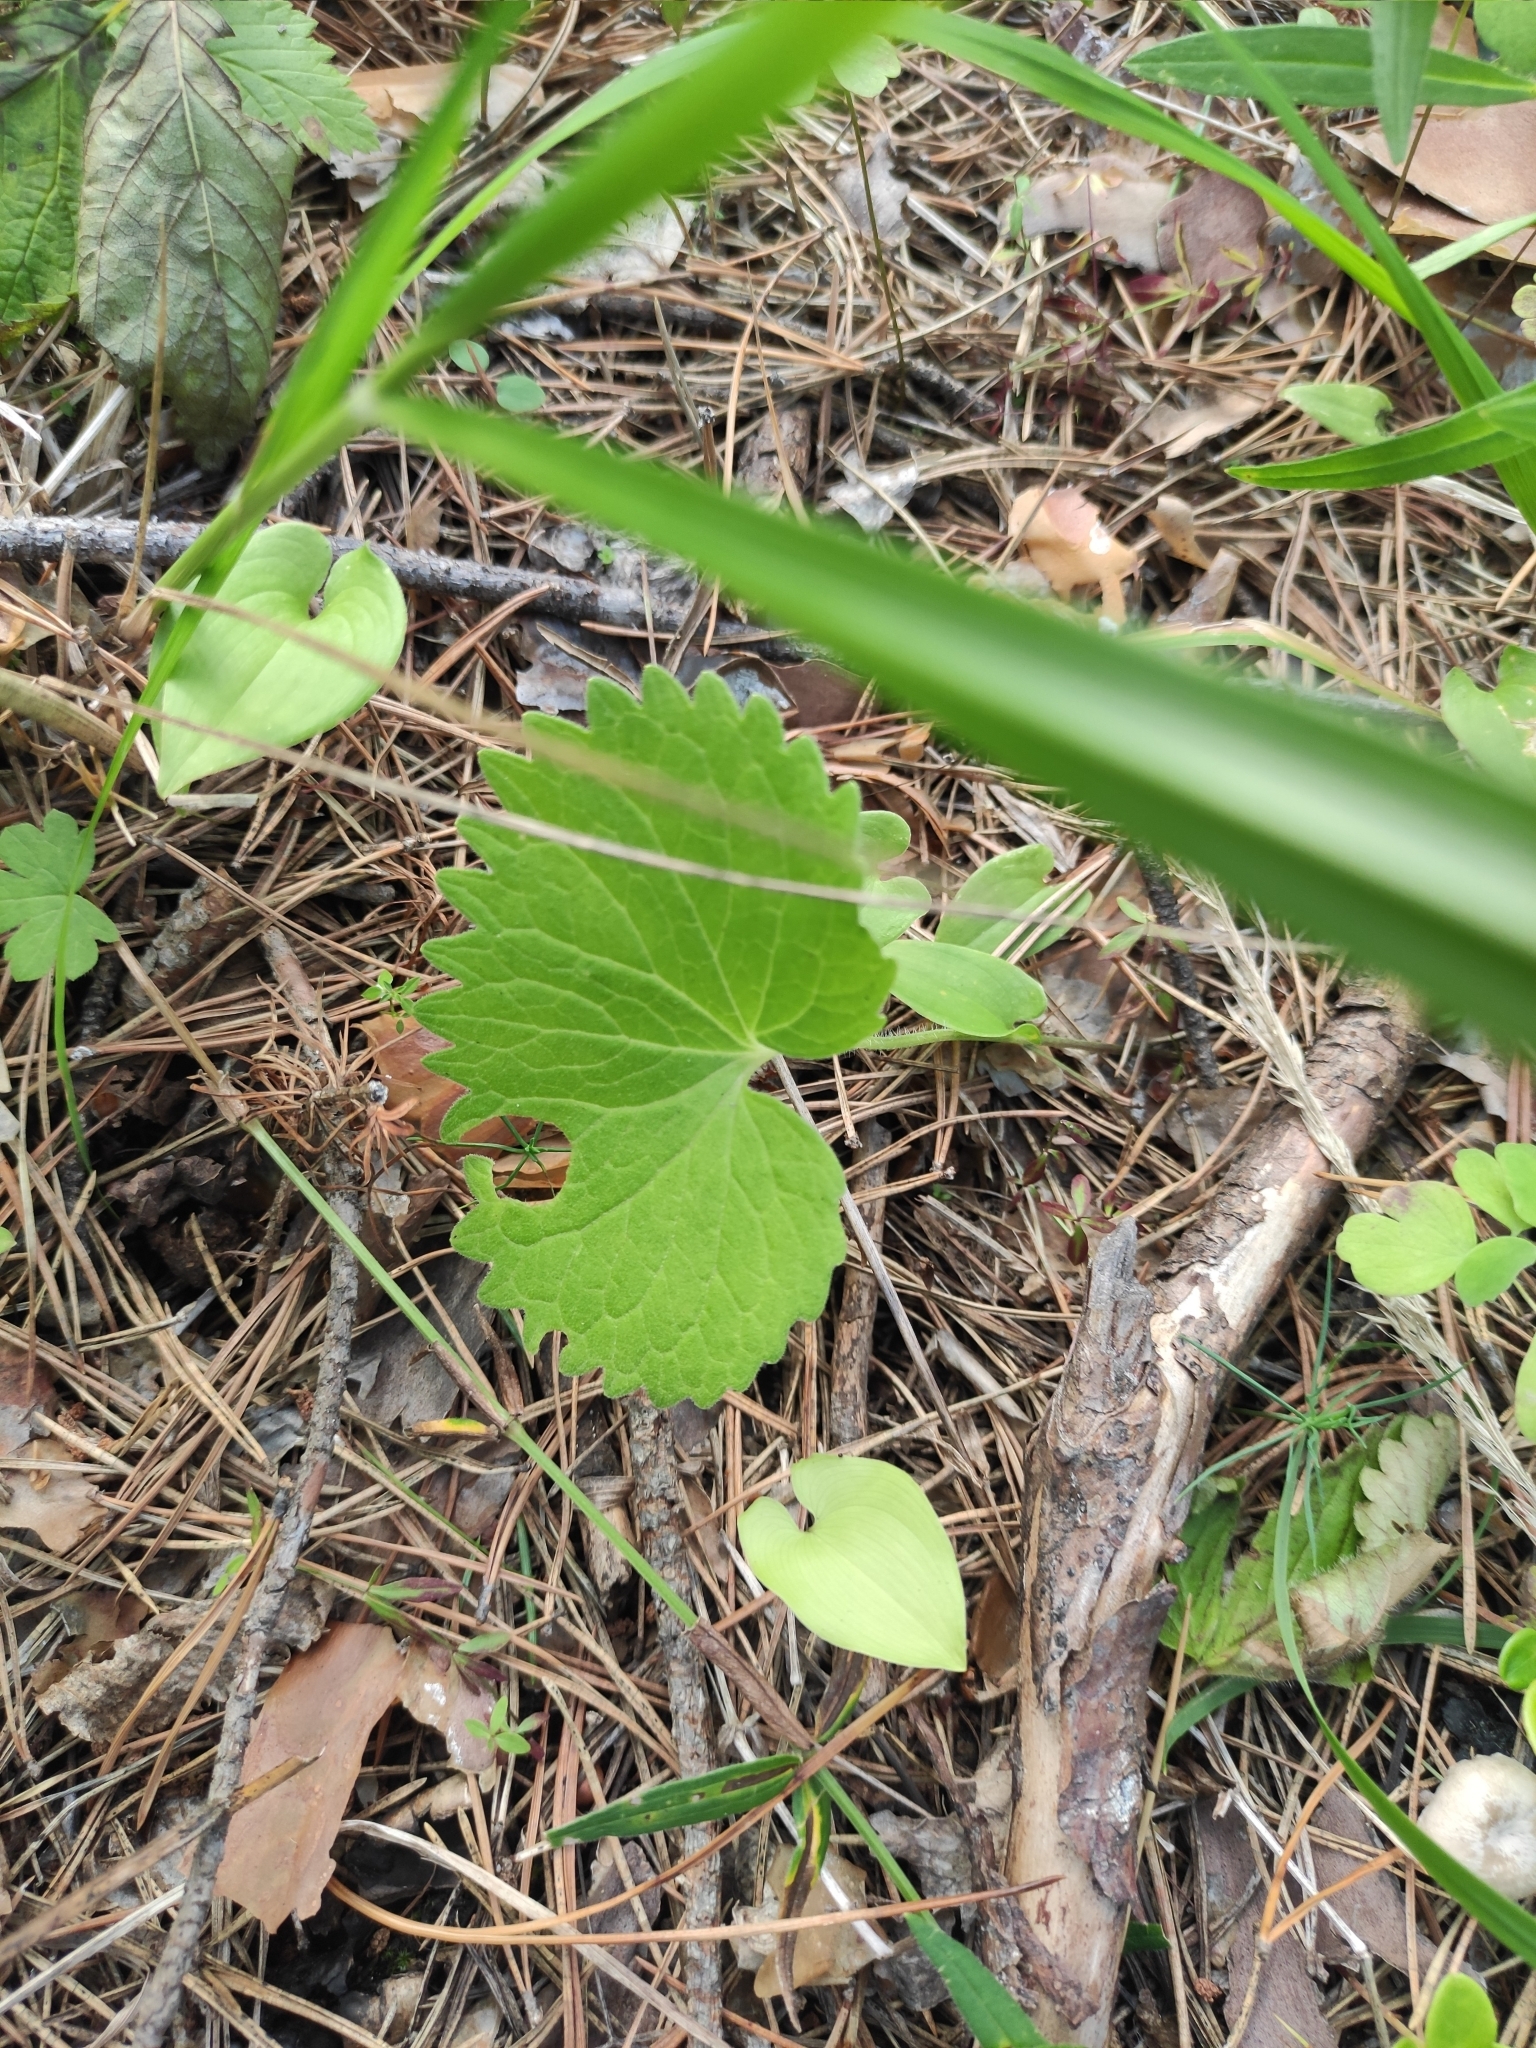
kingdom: Plantae
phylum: Tracheophyta
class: Magnoliopsida
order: Malpighiales
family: Violaceae
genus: Viola
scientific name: Viola uniflora
